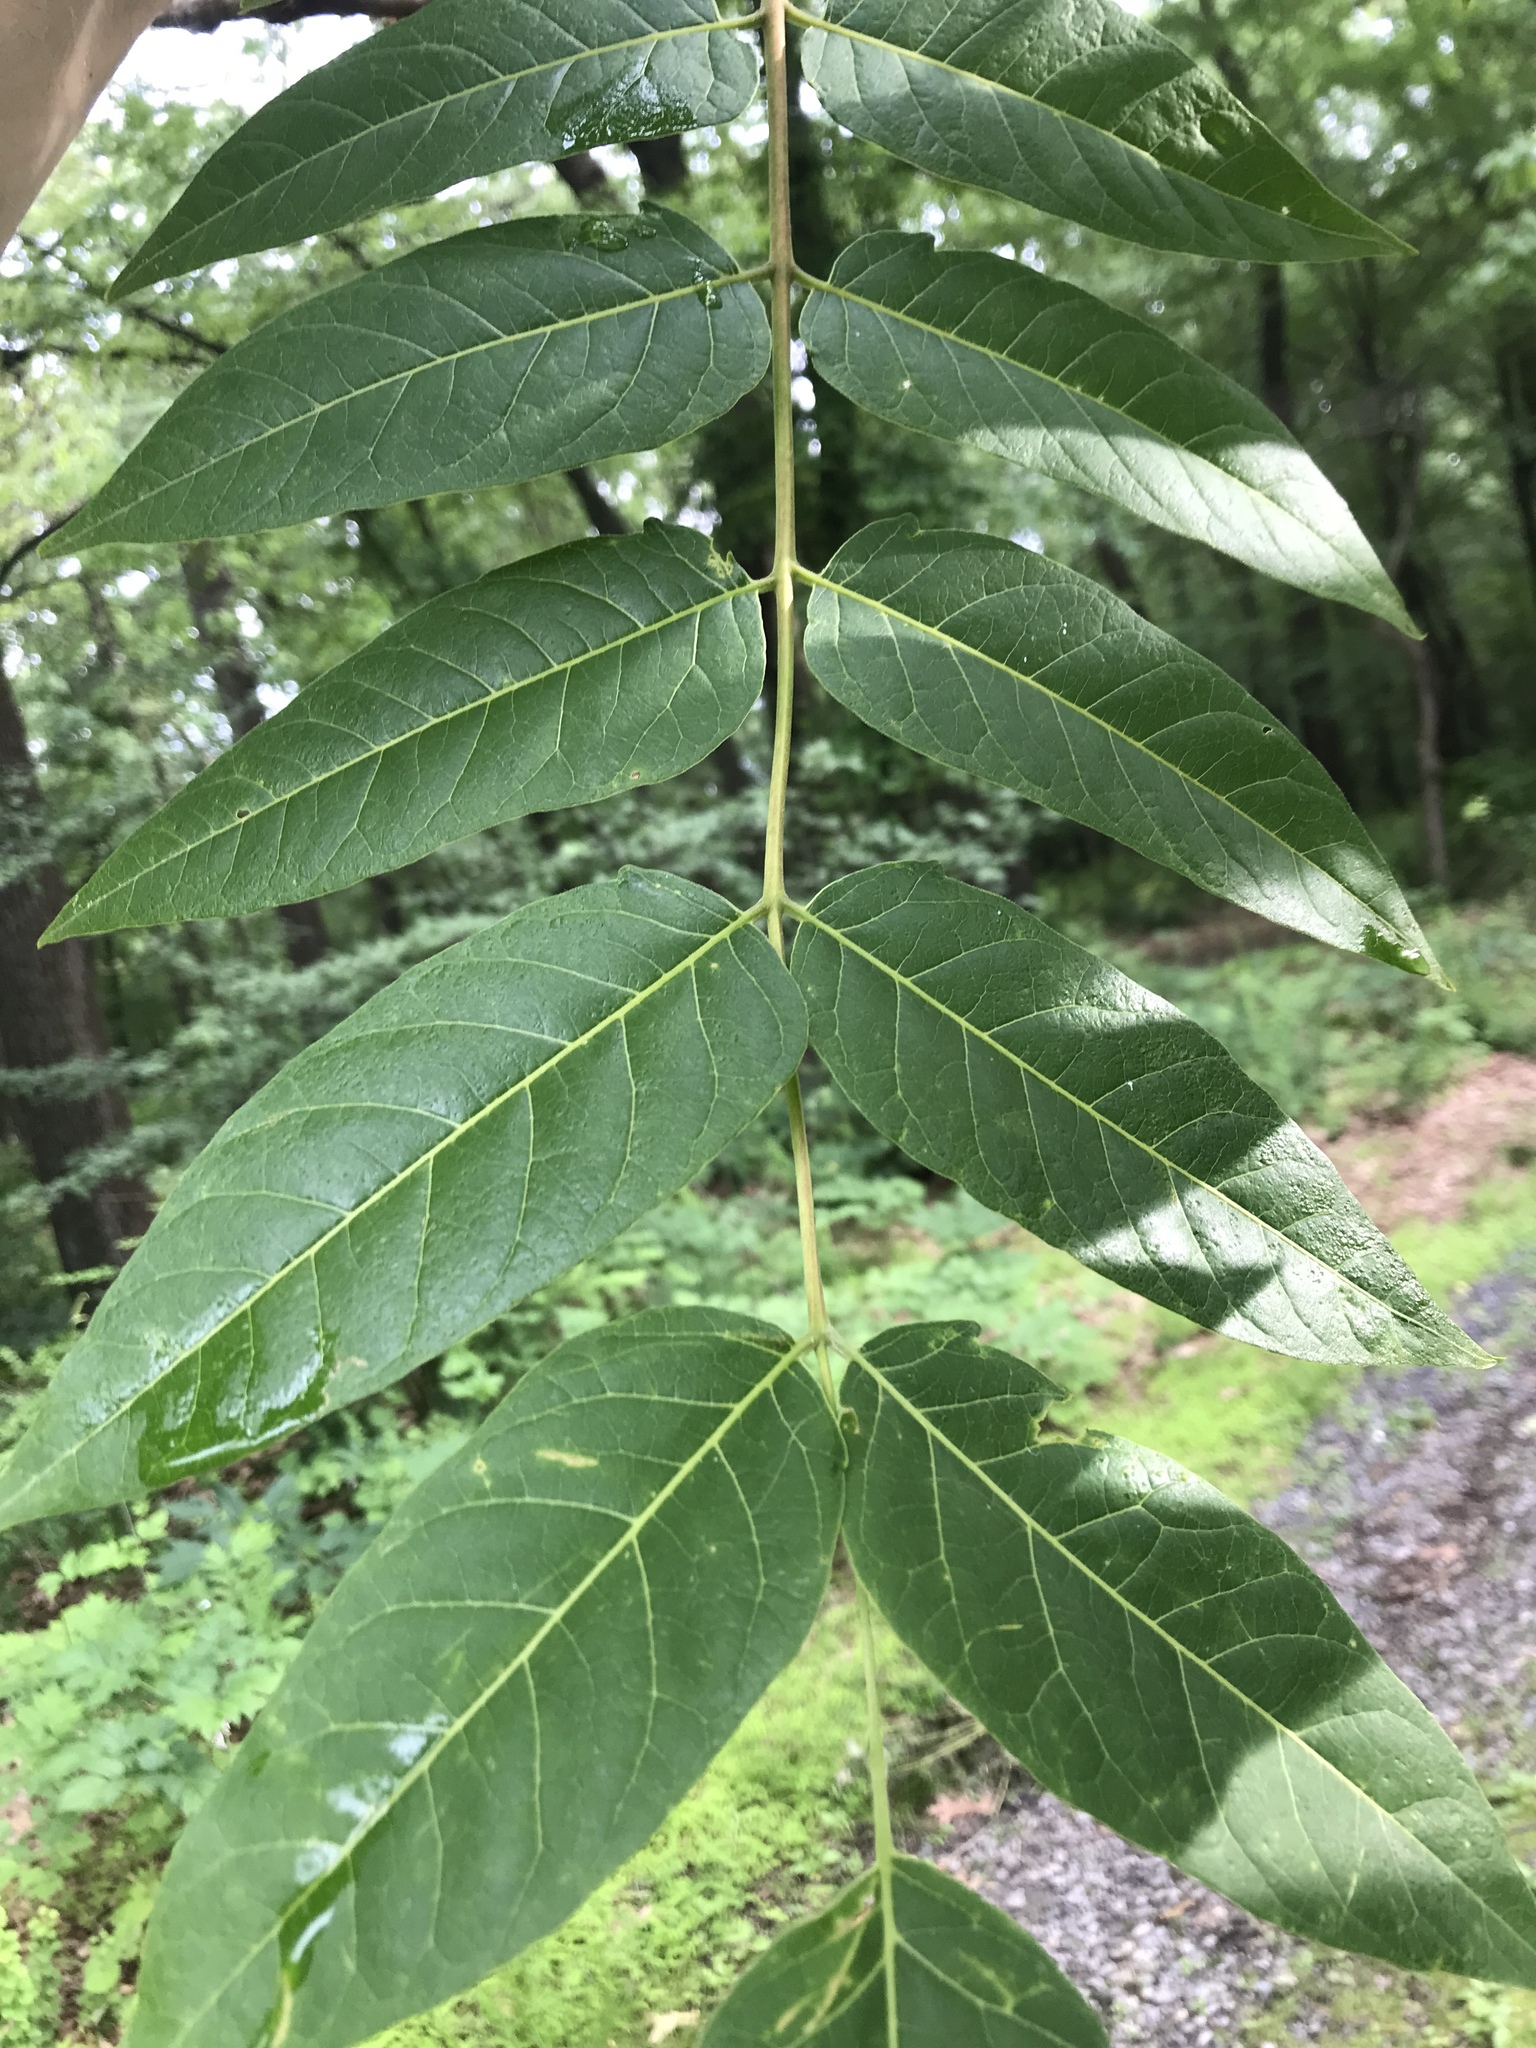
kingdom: Plantae
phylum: Tracheophyta
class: Magnoliopsida
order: Sapindales
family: Simaroubaceae
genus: Ailanthus
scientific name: Ailanthus altissima
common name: Tree-of-heaven
